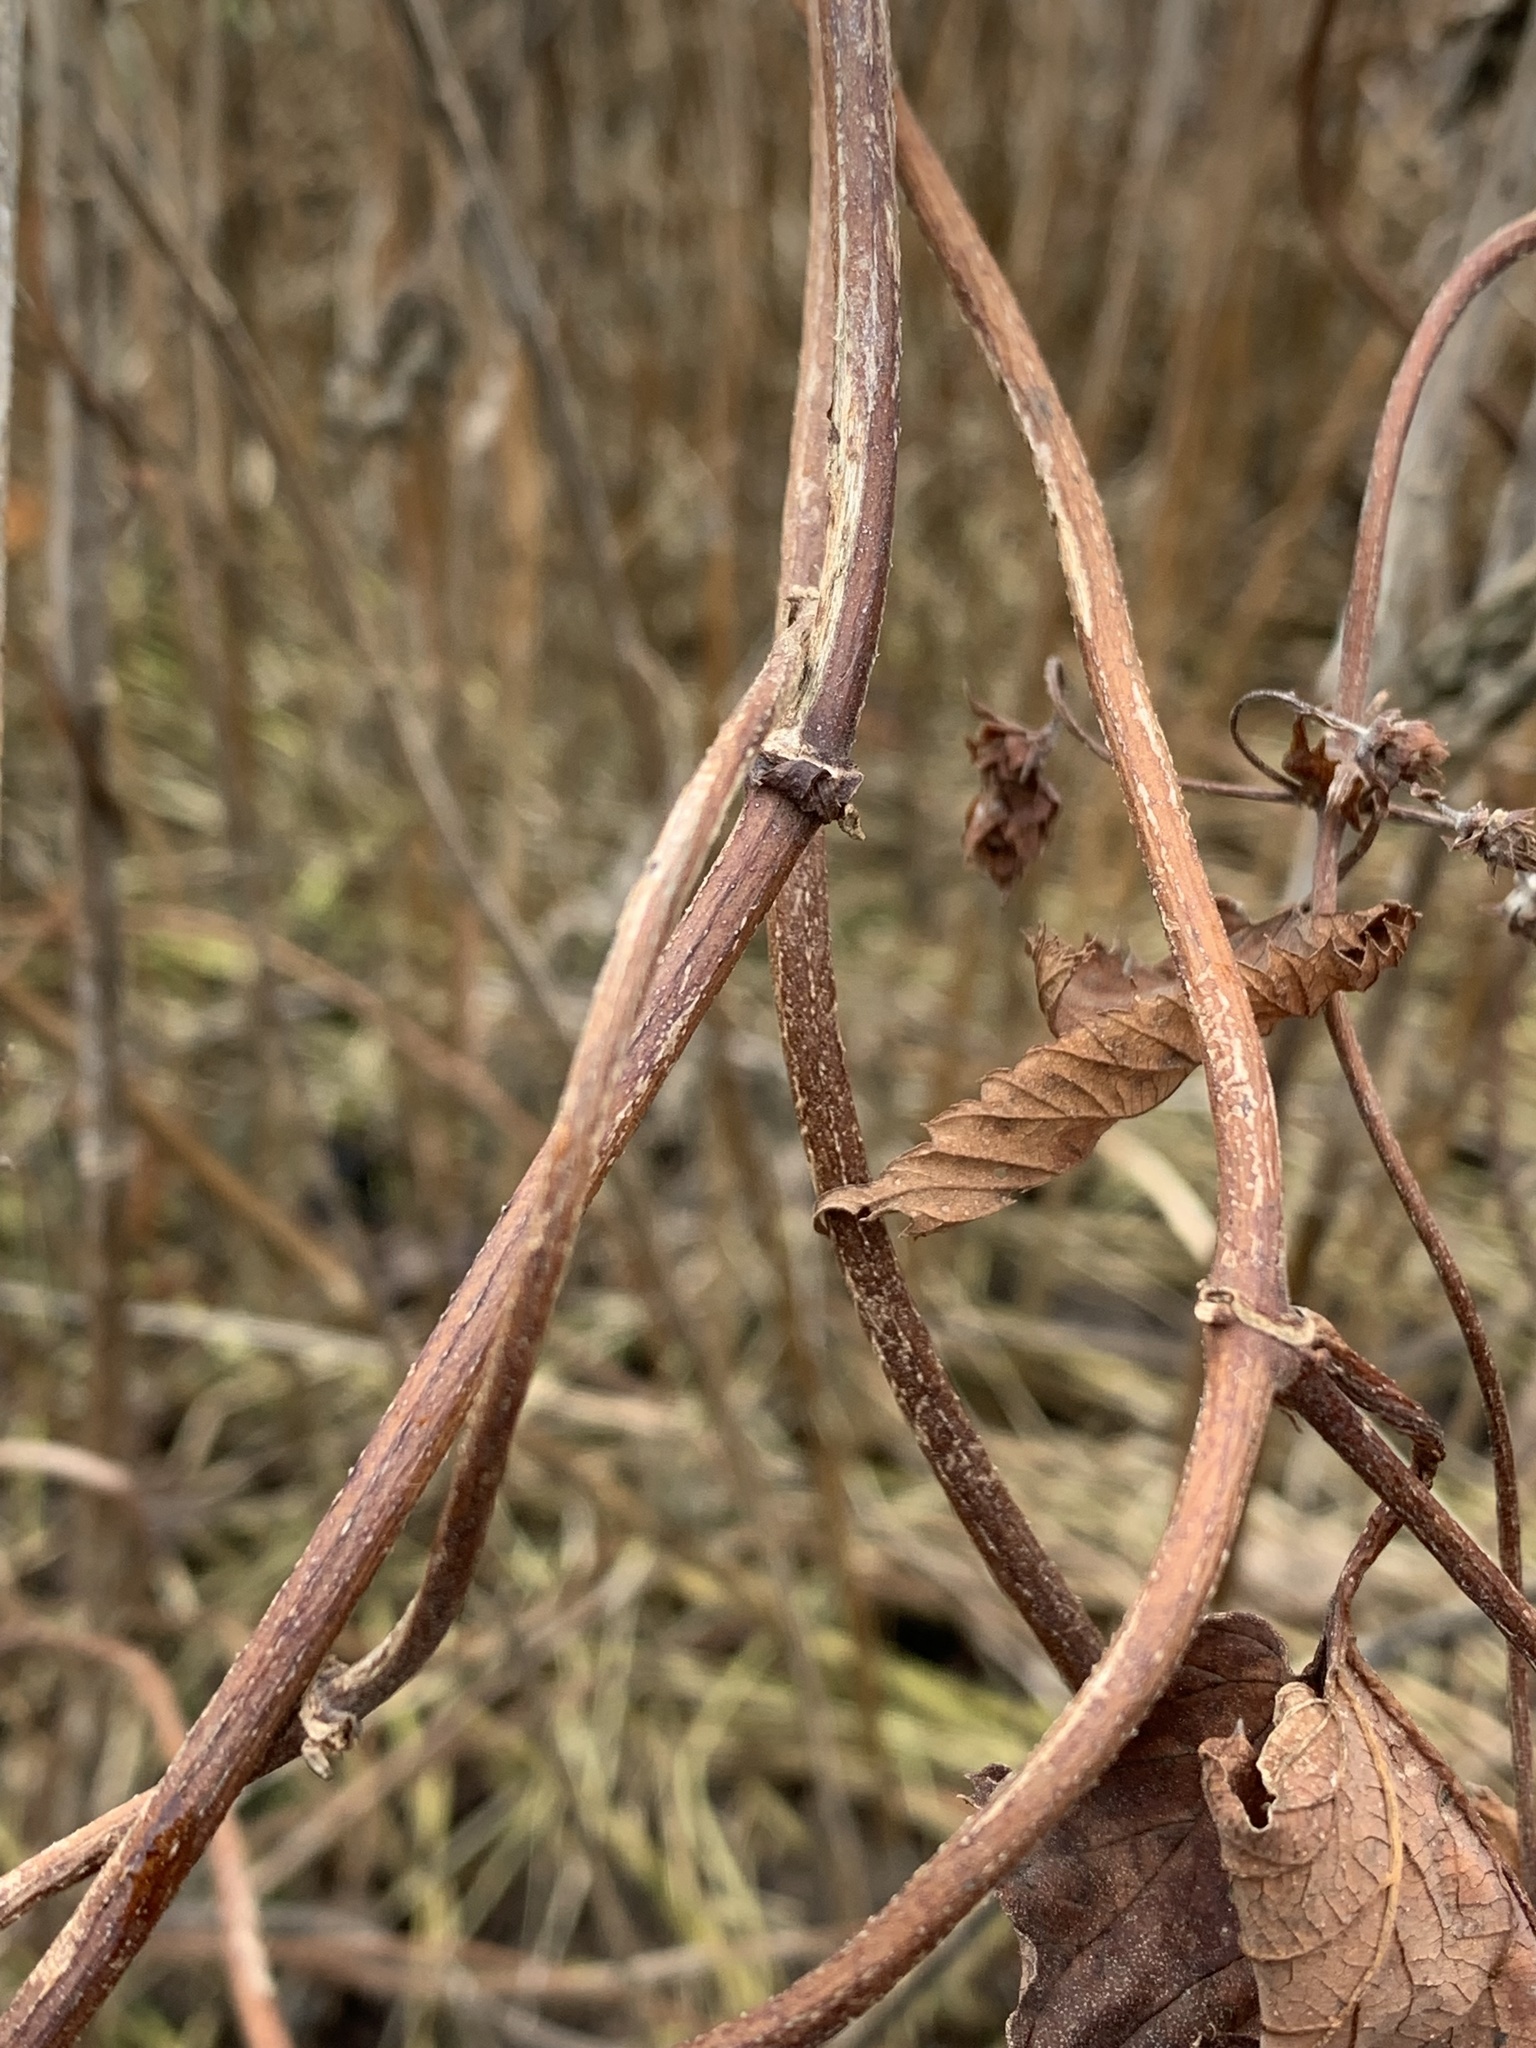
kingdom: Plantae
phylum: Tracheophyta
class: Magnoliopsida
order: Rosales
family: Cannabaceae
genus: Humulus
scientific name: Humulus lupulus
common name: Hop
